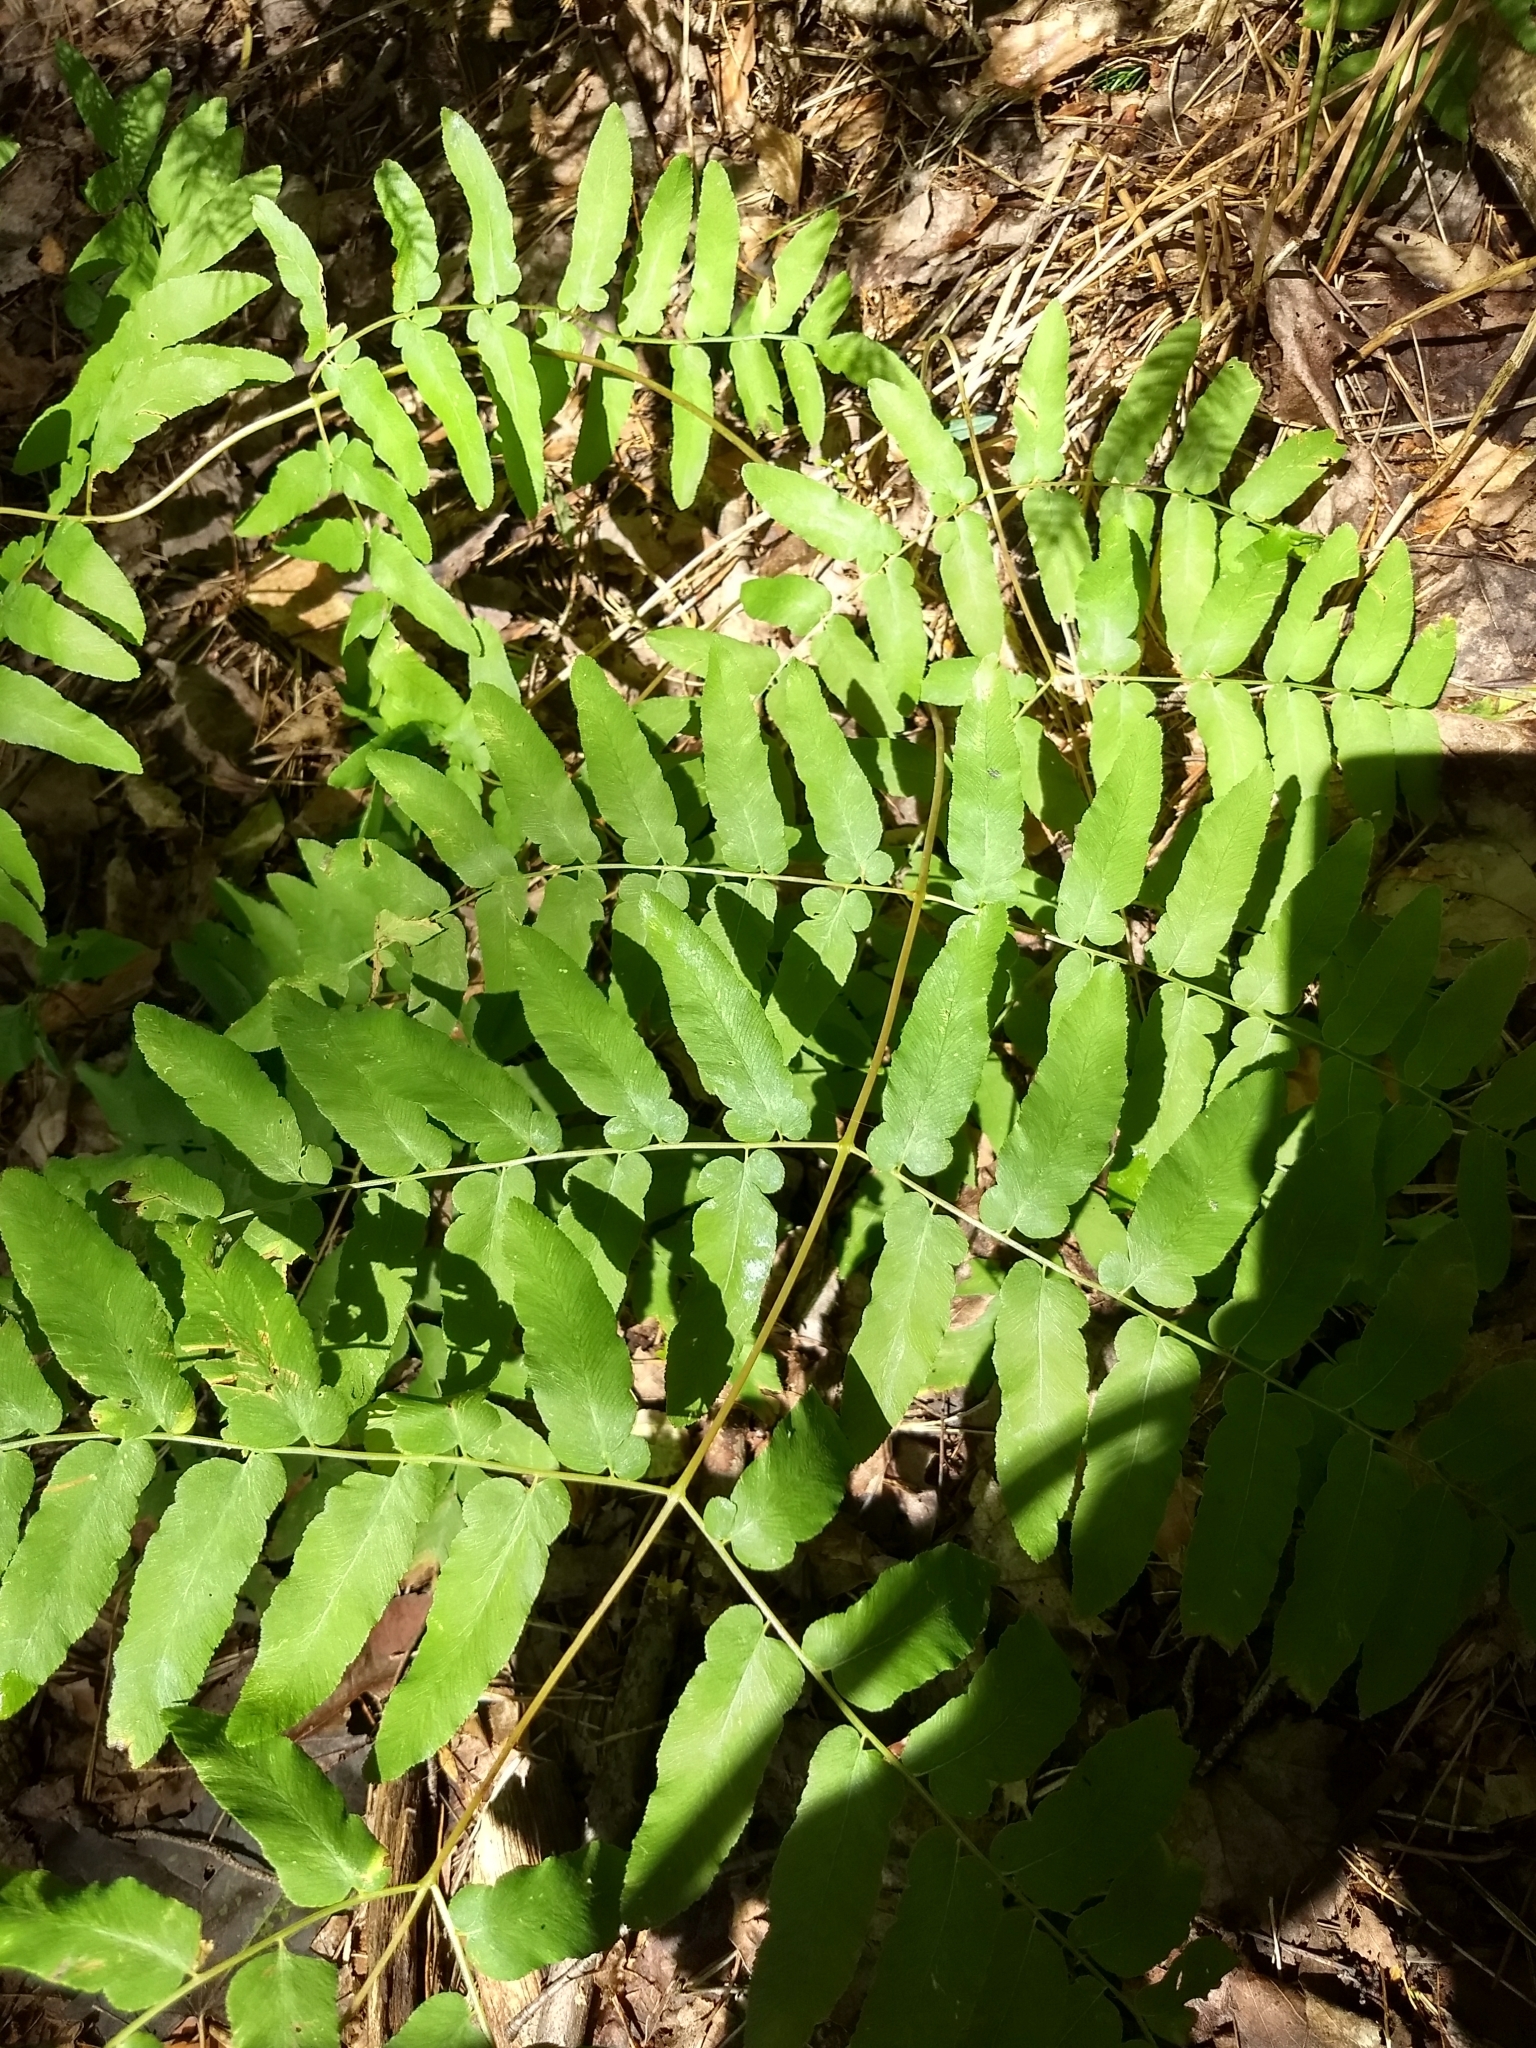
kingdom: Plantae
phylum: Tracheophyta
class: Polypodiopsida
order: Osmundales
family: Osmundaceae
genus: Osmunda
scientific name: Osmunda spectabilis
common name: American royal fern
